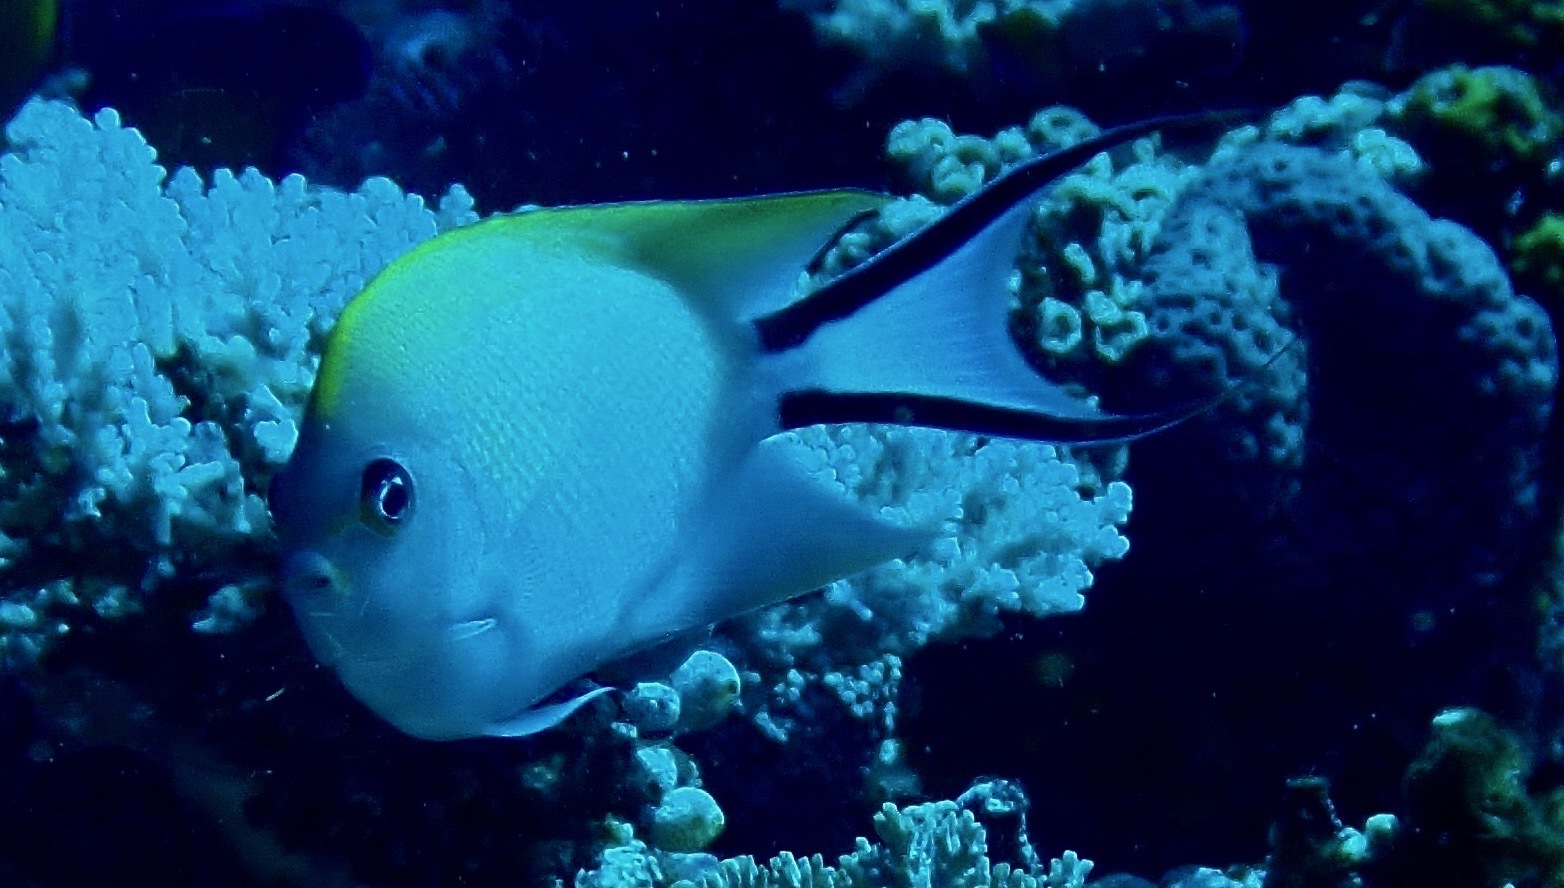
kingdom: Animalia
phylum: Chordata
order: Perciformes
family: Pomacanthidae
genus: Genicanthus
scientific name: Genicanthus melanospilos
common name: Black-spot angelfish
